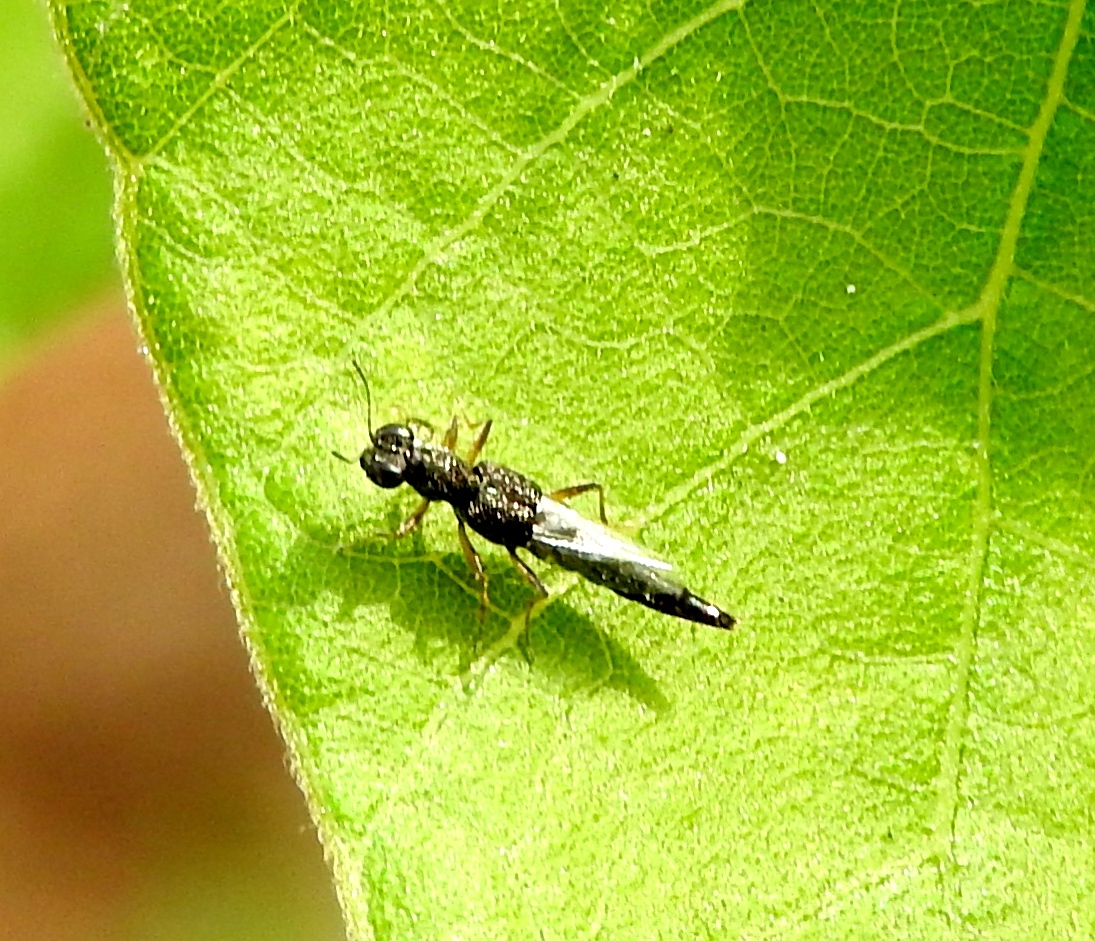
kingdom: Animalia
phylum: Arthropoda
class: Insecta
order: Coleoptera
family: Staphylinidae
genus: Stenus
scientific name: Stenus
